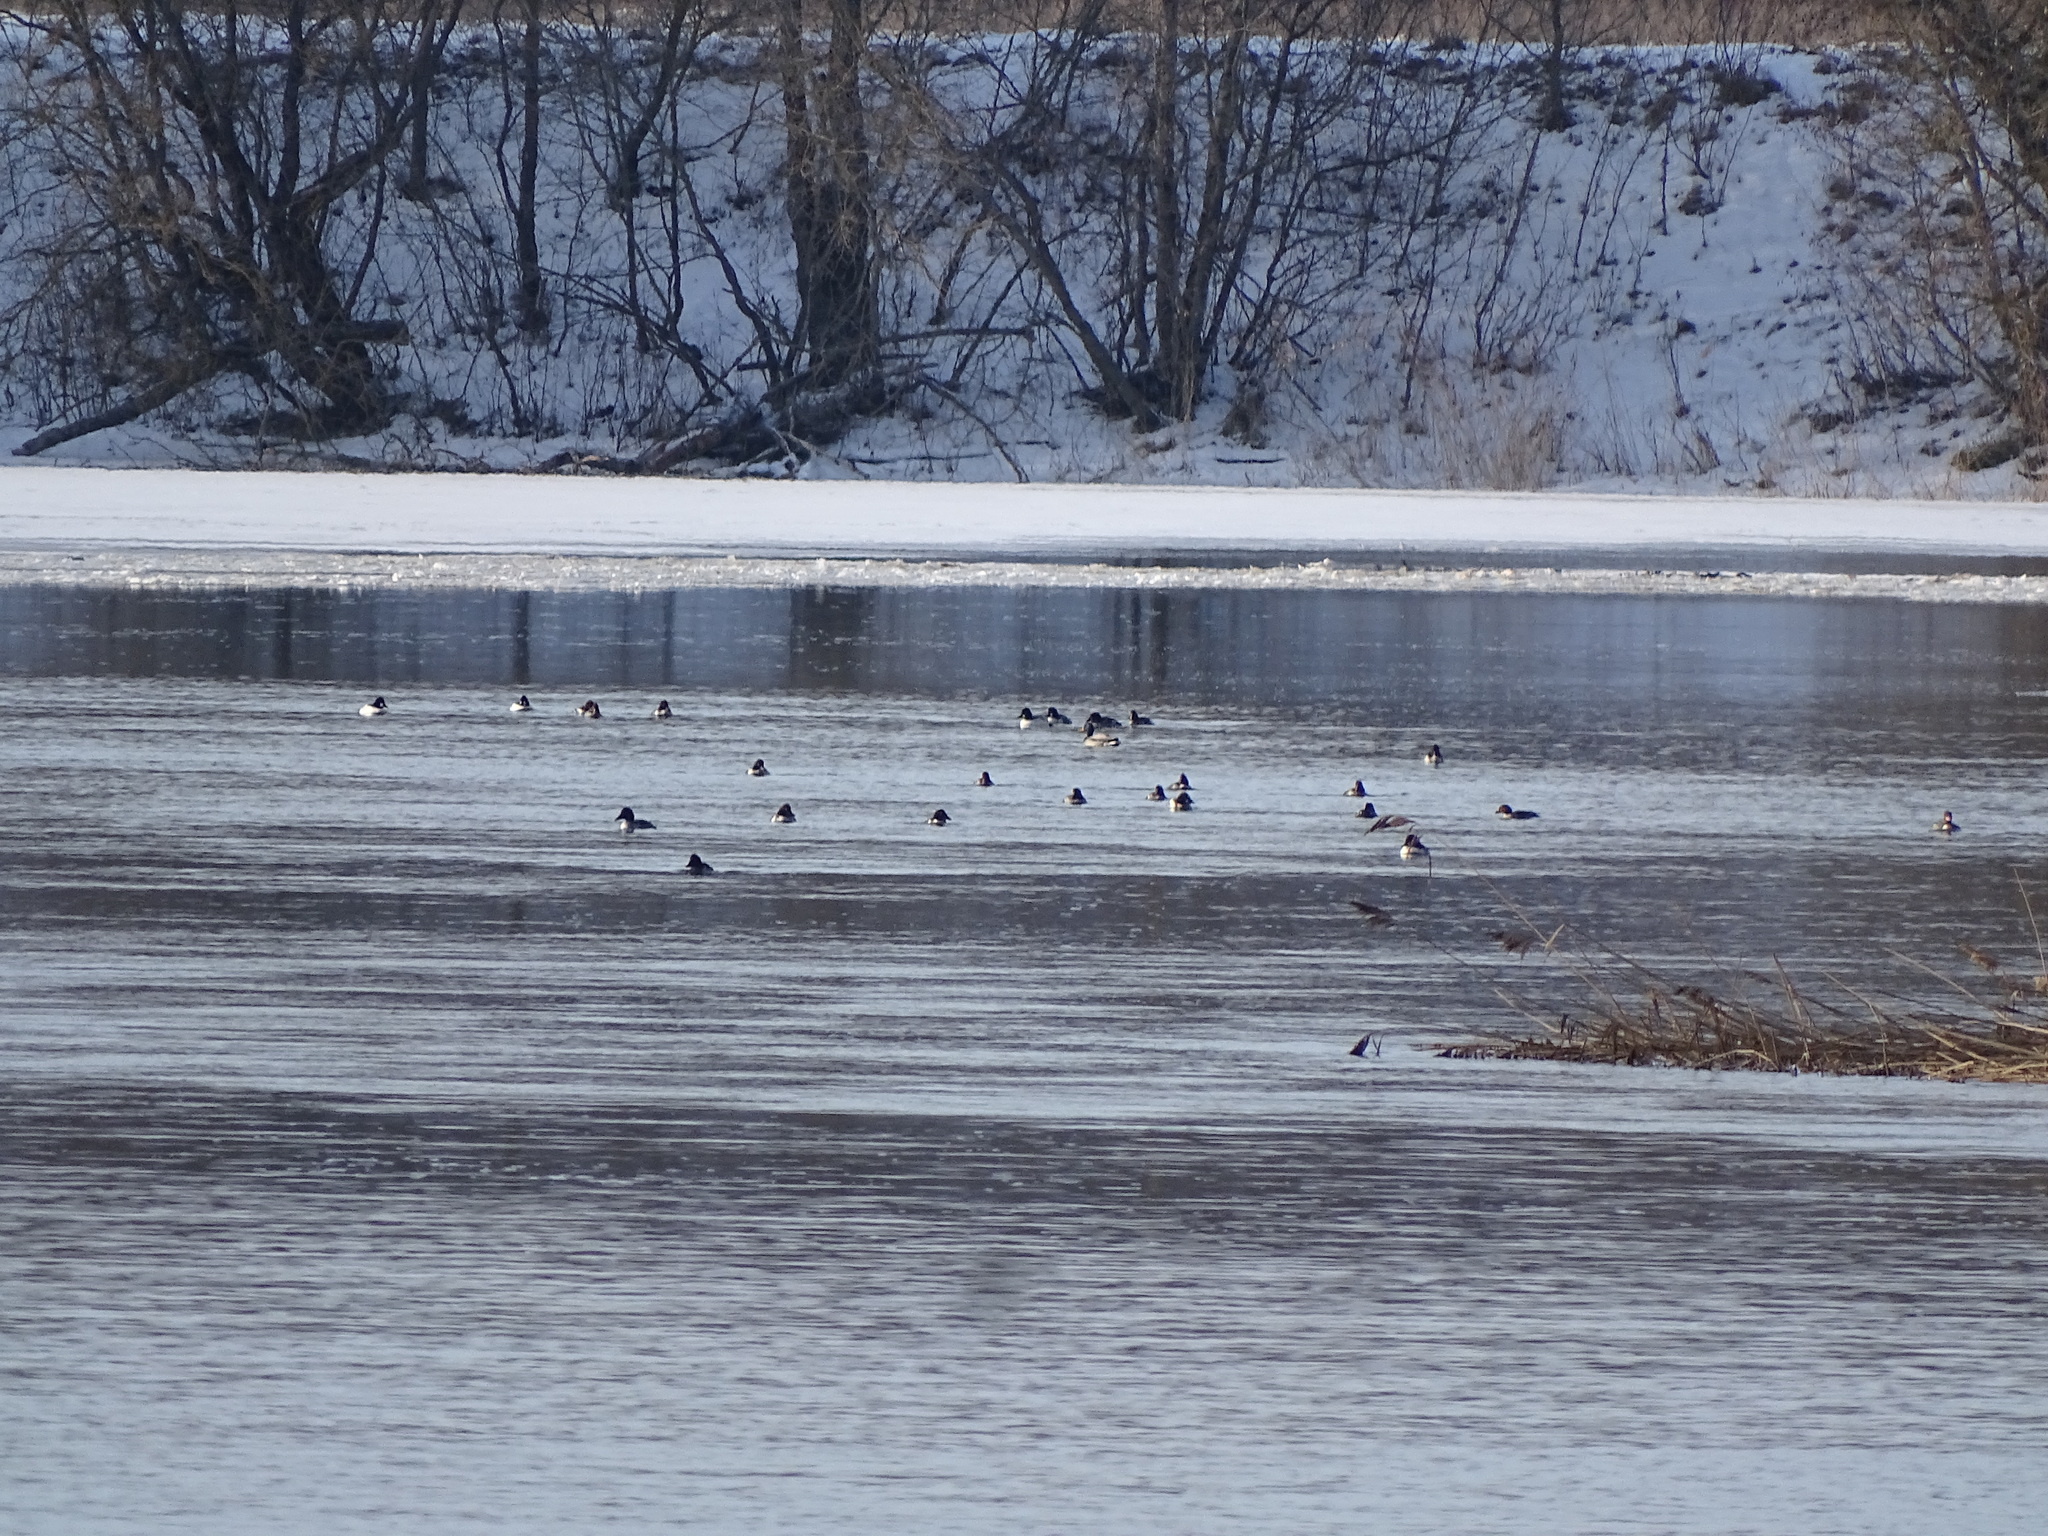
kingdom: Animalia
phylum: Chordata
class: Aves
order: Anseriformes
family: Anatidae
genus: Bucephala
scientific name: Bucephala clangula
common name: Common goldeneye
